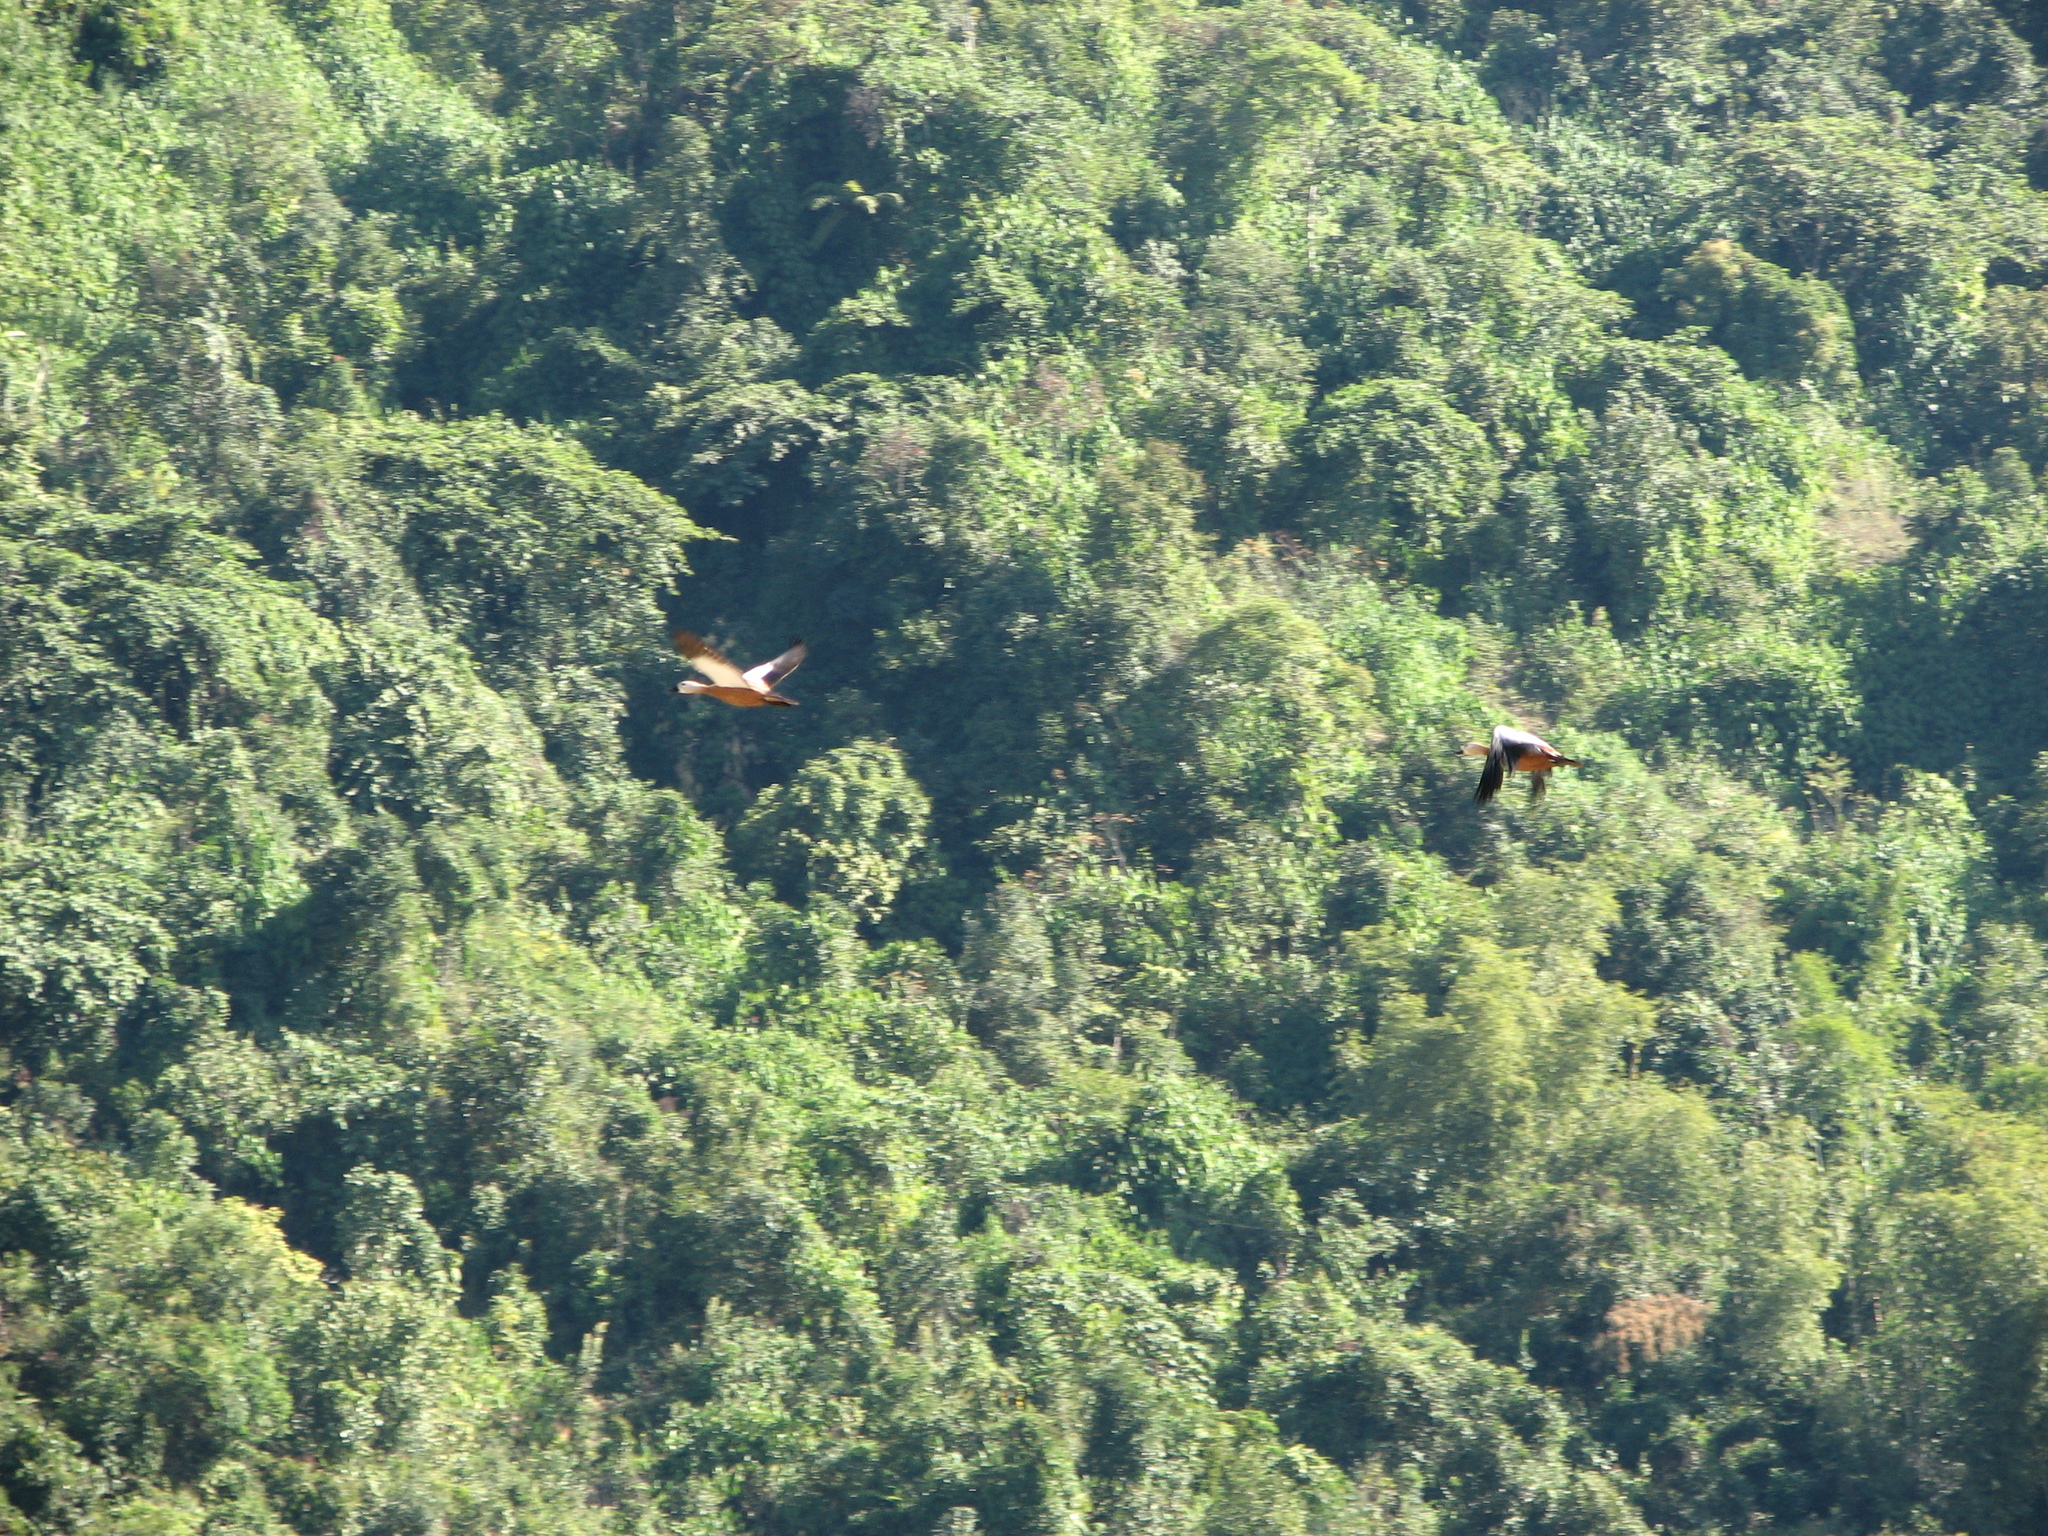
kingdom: Animalia
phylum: Chordata
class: Aves
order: Anseriformes
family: Anatidae
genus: Tadorna
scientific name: Tadorna ferruginea
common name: Ruddy shelduck
